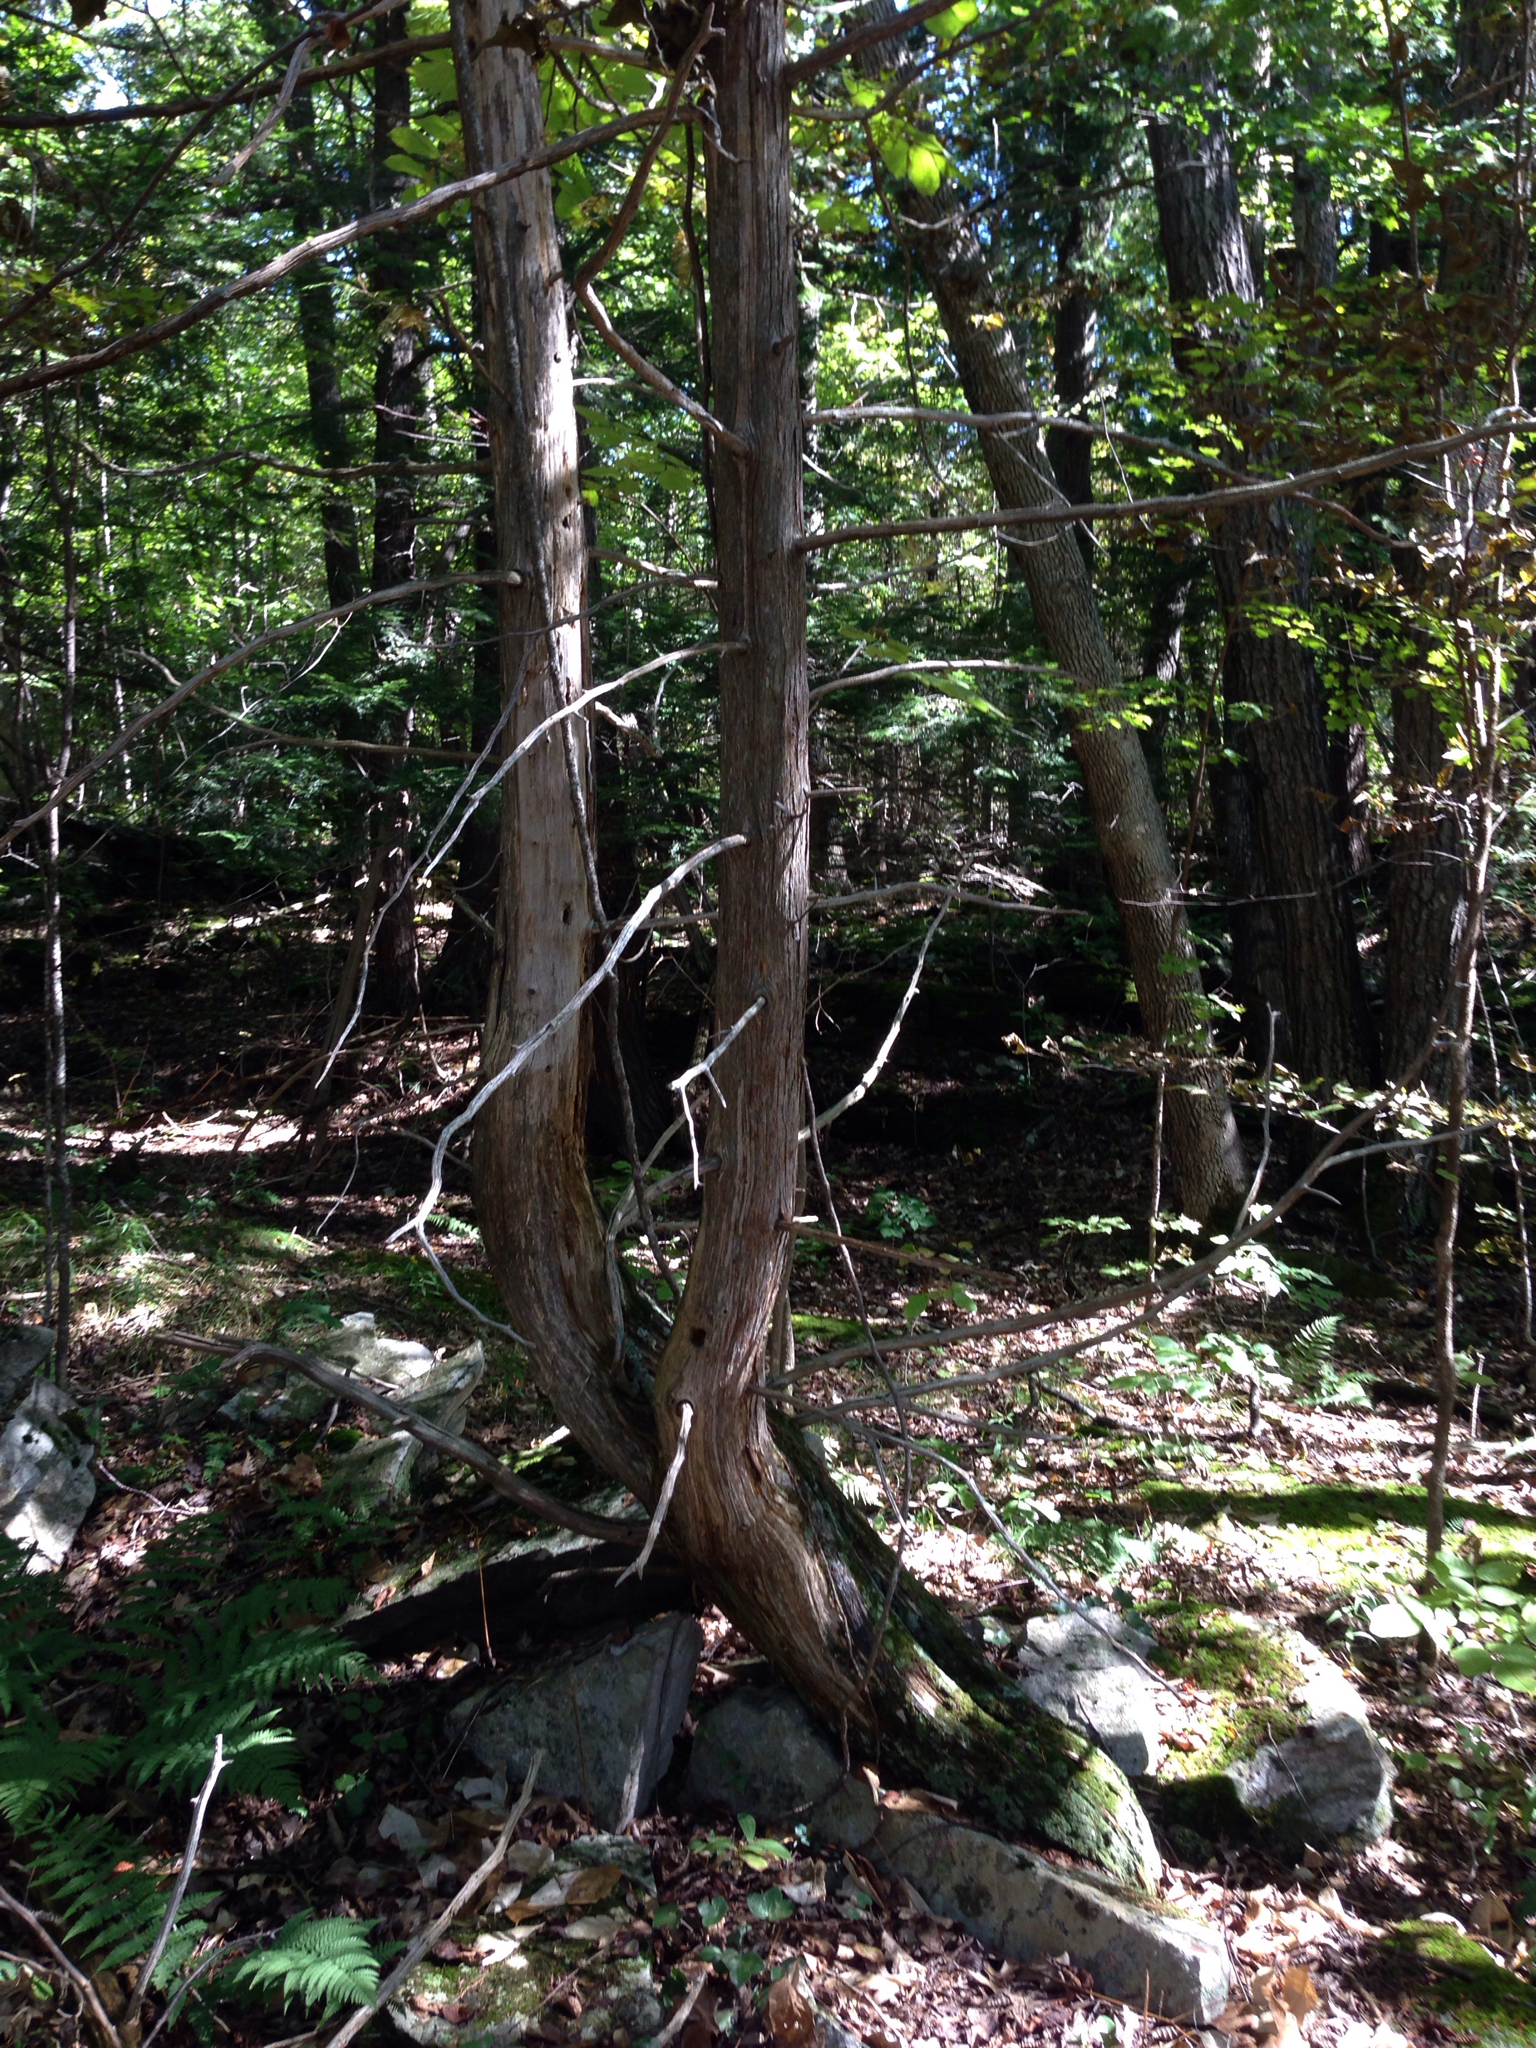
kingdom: Plantae
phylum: Tracheophyta
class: Pinopsida
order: Pinales
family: Cupressaceae
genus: Thuja
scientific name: Thuja occidentalis
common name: Northern white-cedar
